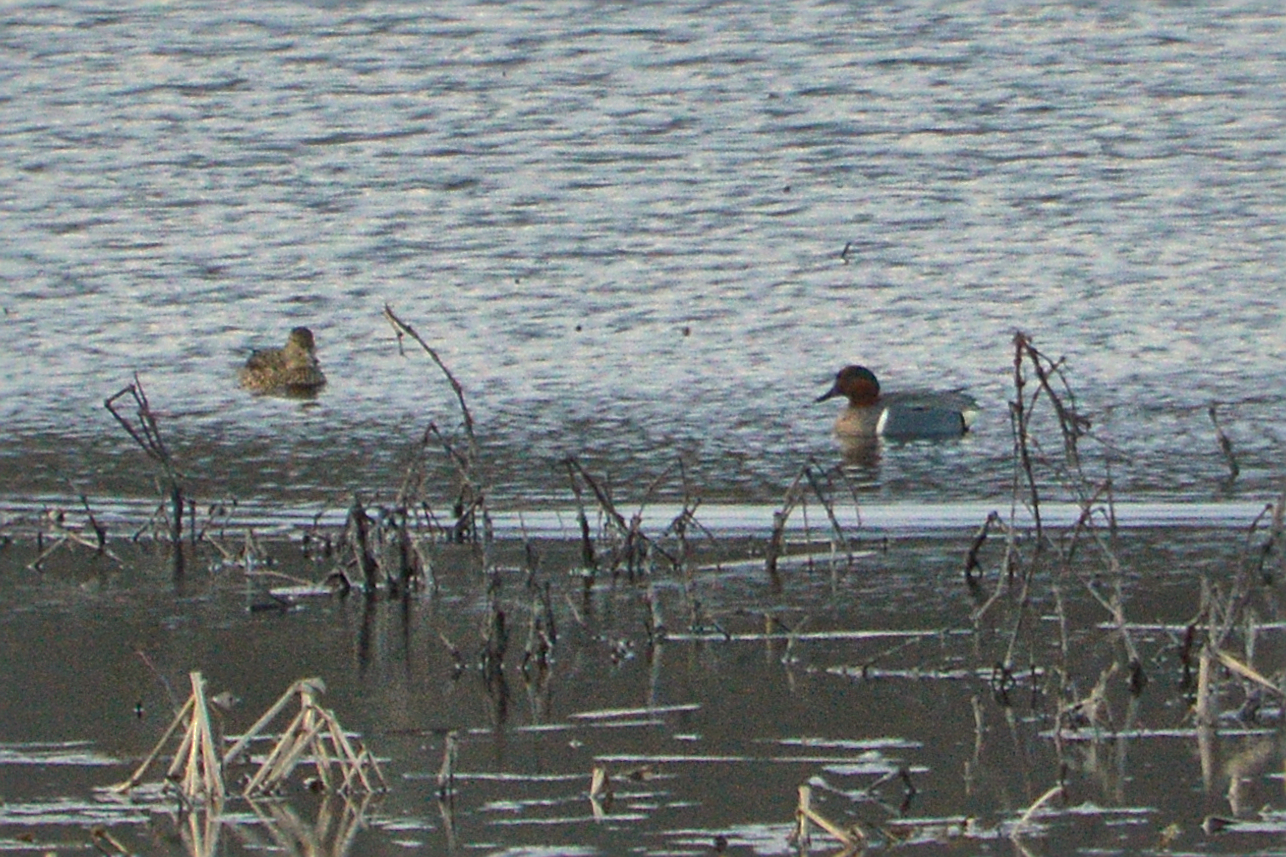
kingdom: Animalia
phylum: Chordata
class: Aves
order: Anseriformes
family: Anatidae
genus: Anas
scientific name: Anas carolinensis
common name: Green-winged teal
